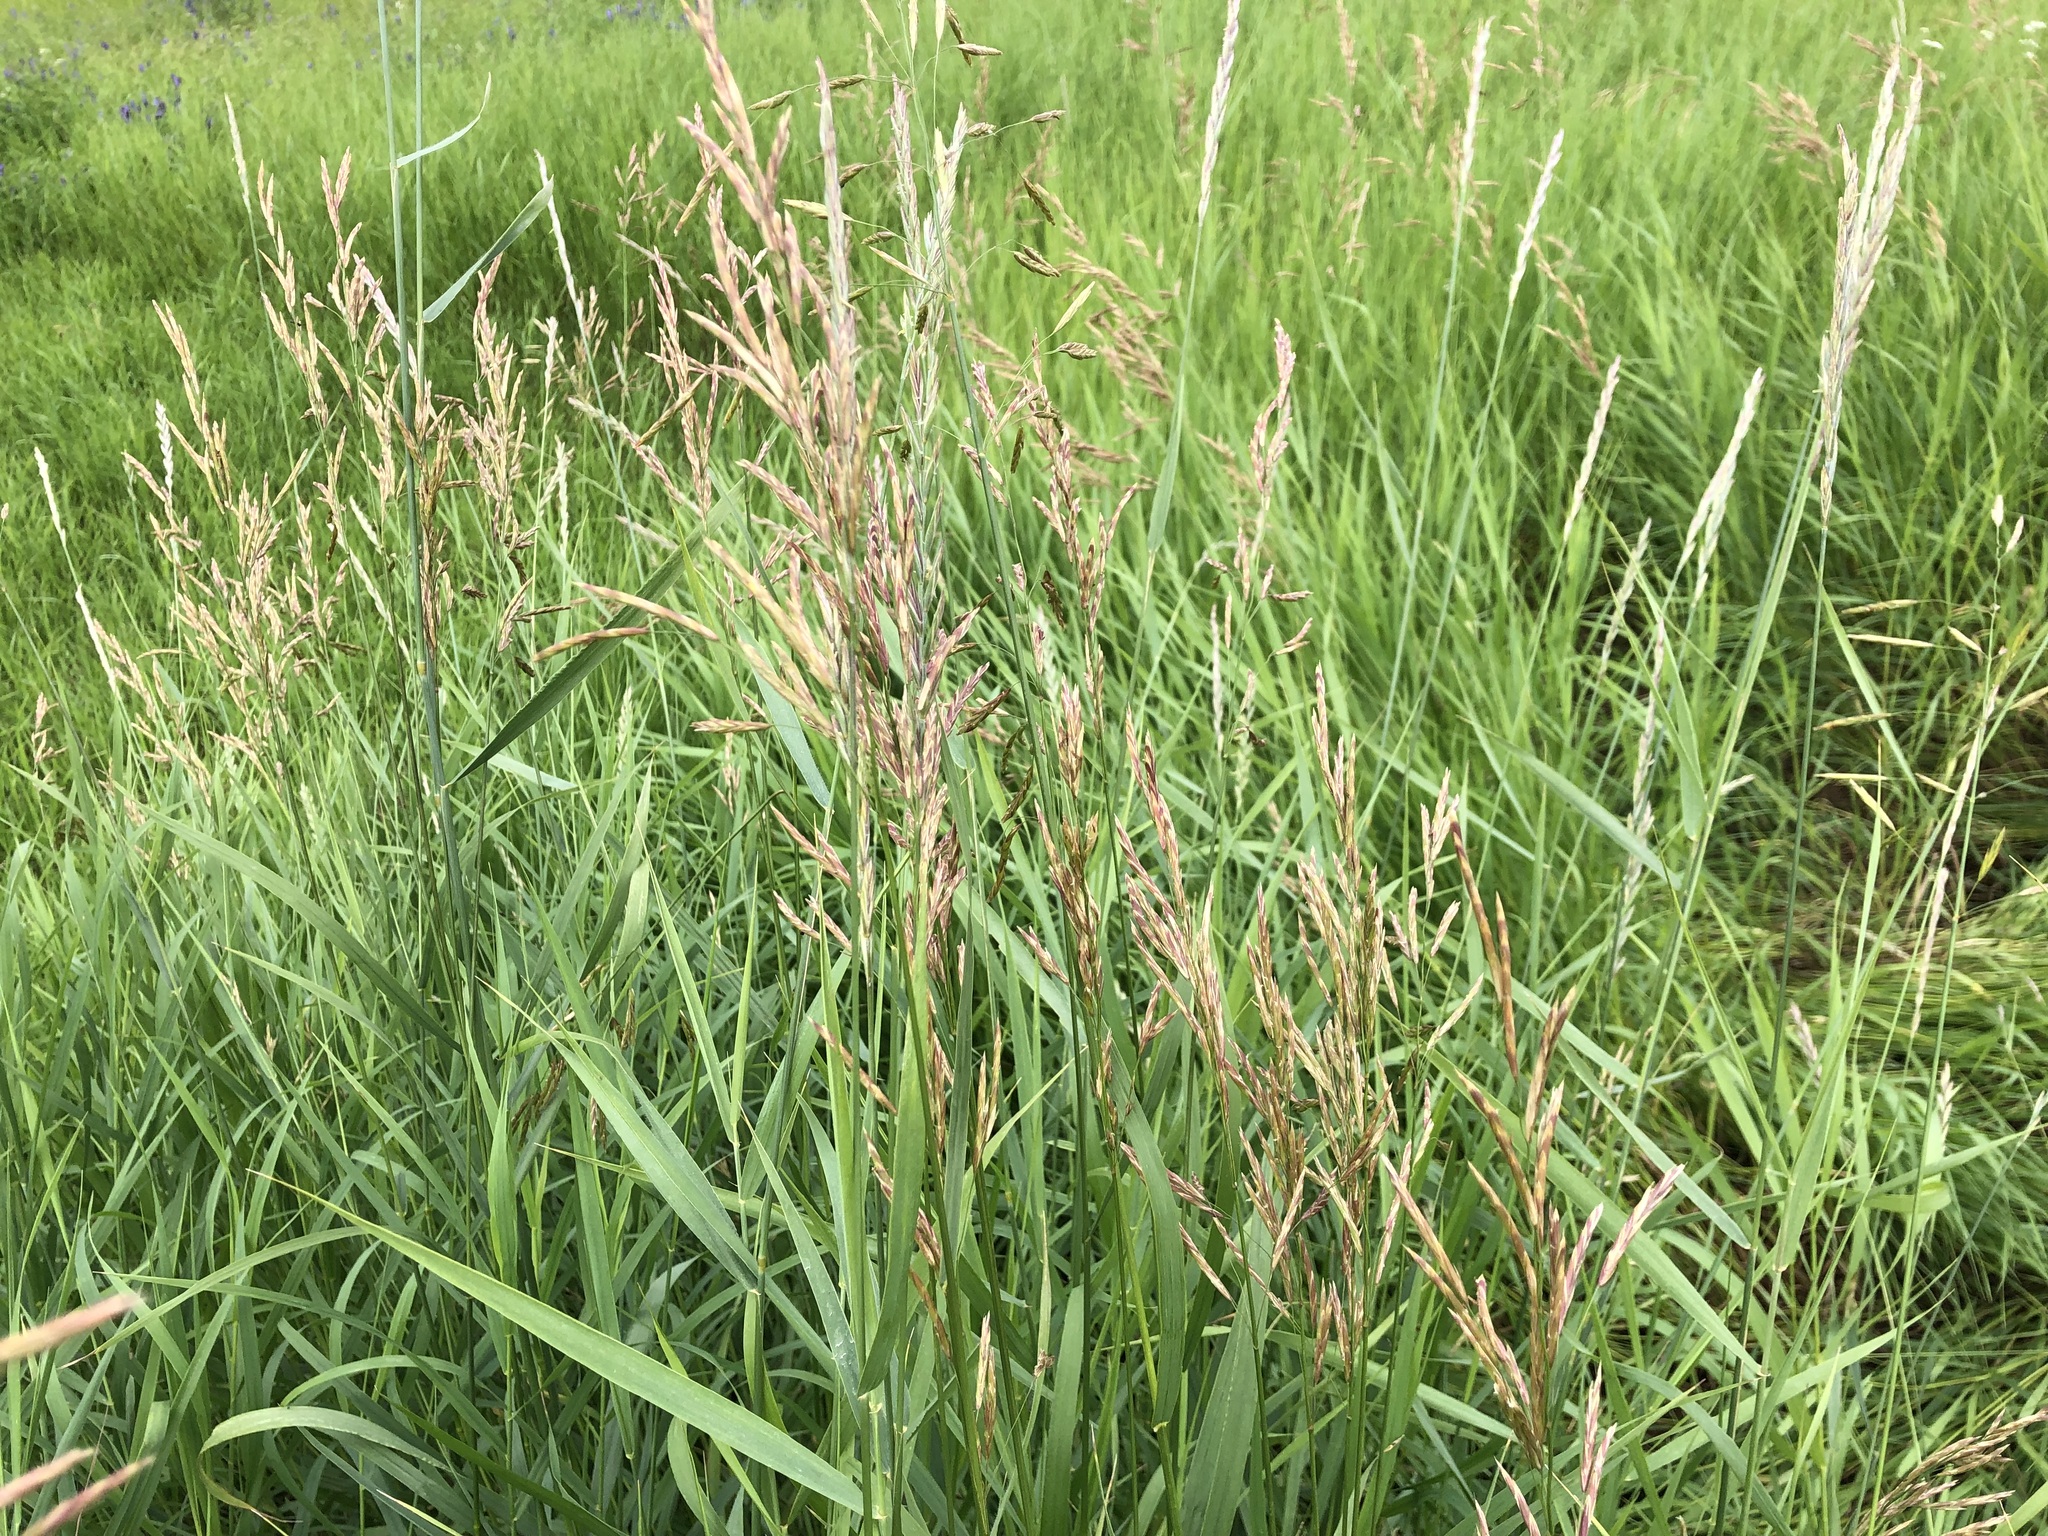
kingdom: Plantae
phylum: Tracheophyta
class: Liliopsida
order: Poales
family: Poaceae
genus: Bromus
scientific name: Bromus inermis
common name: Smooth brome
